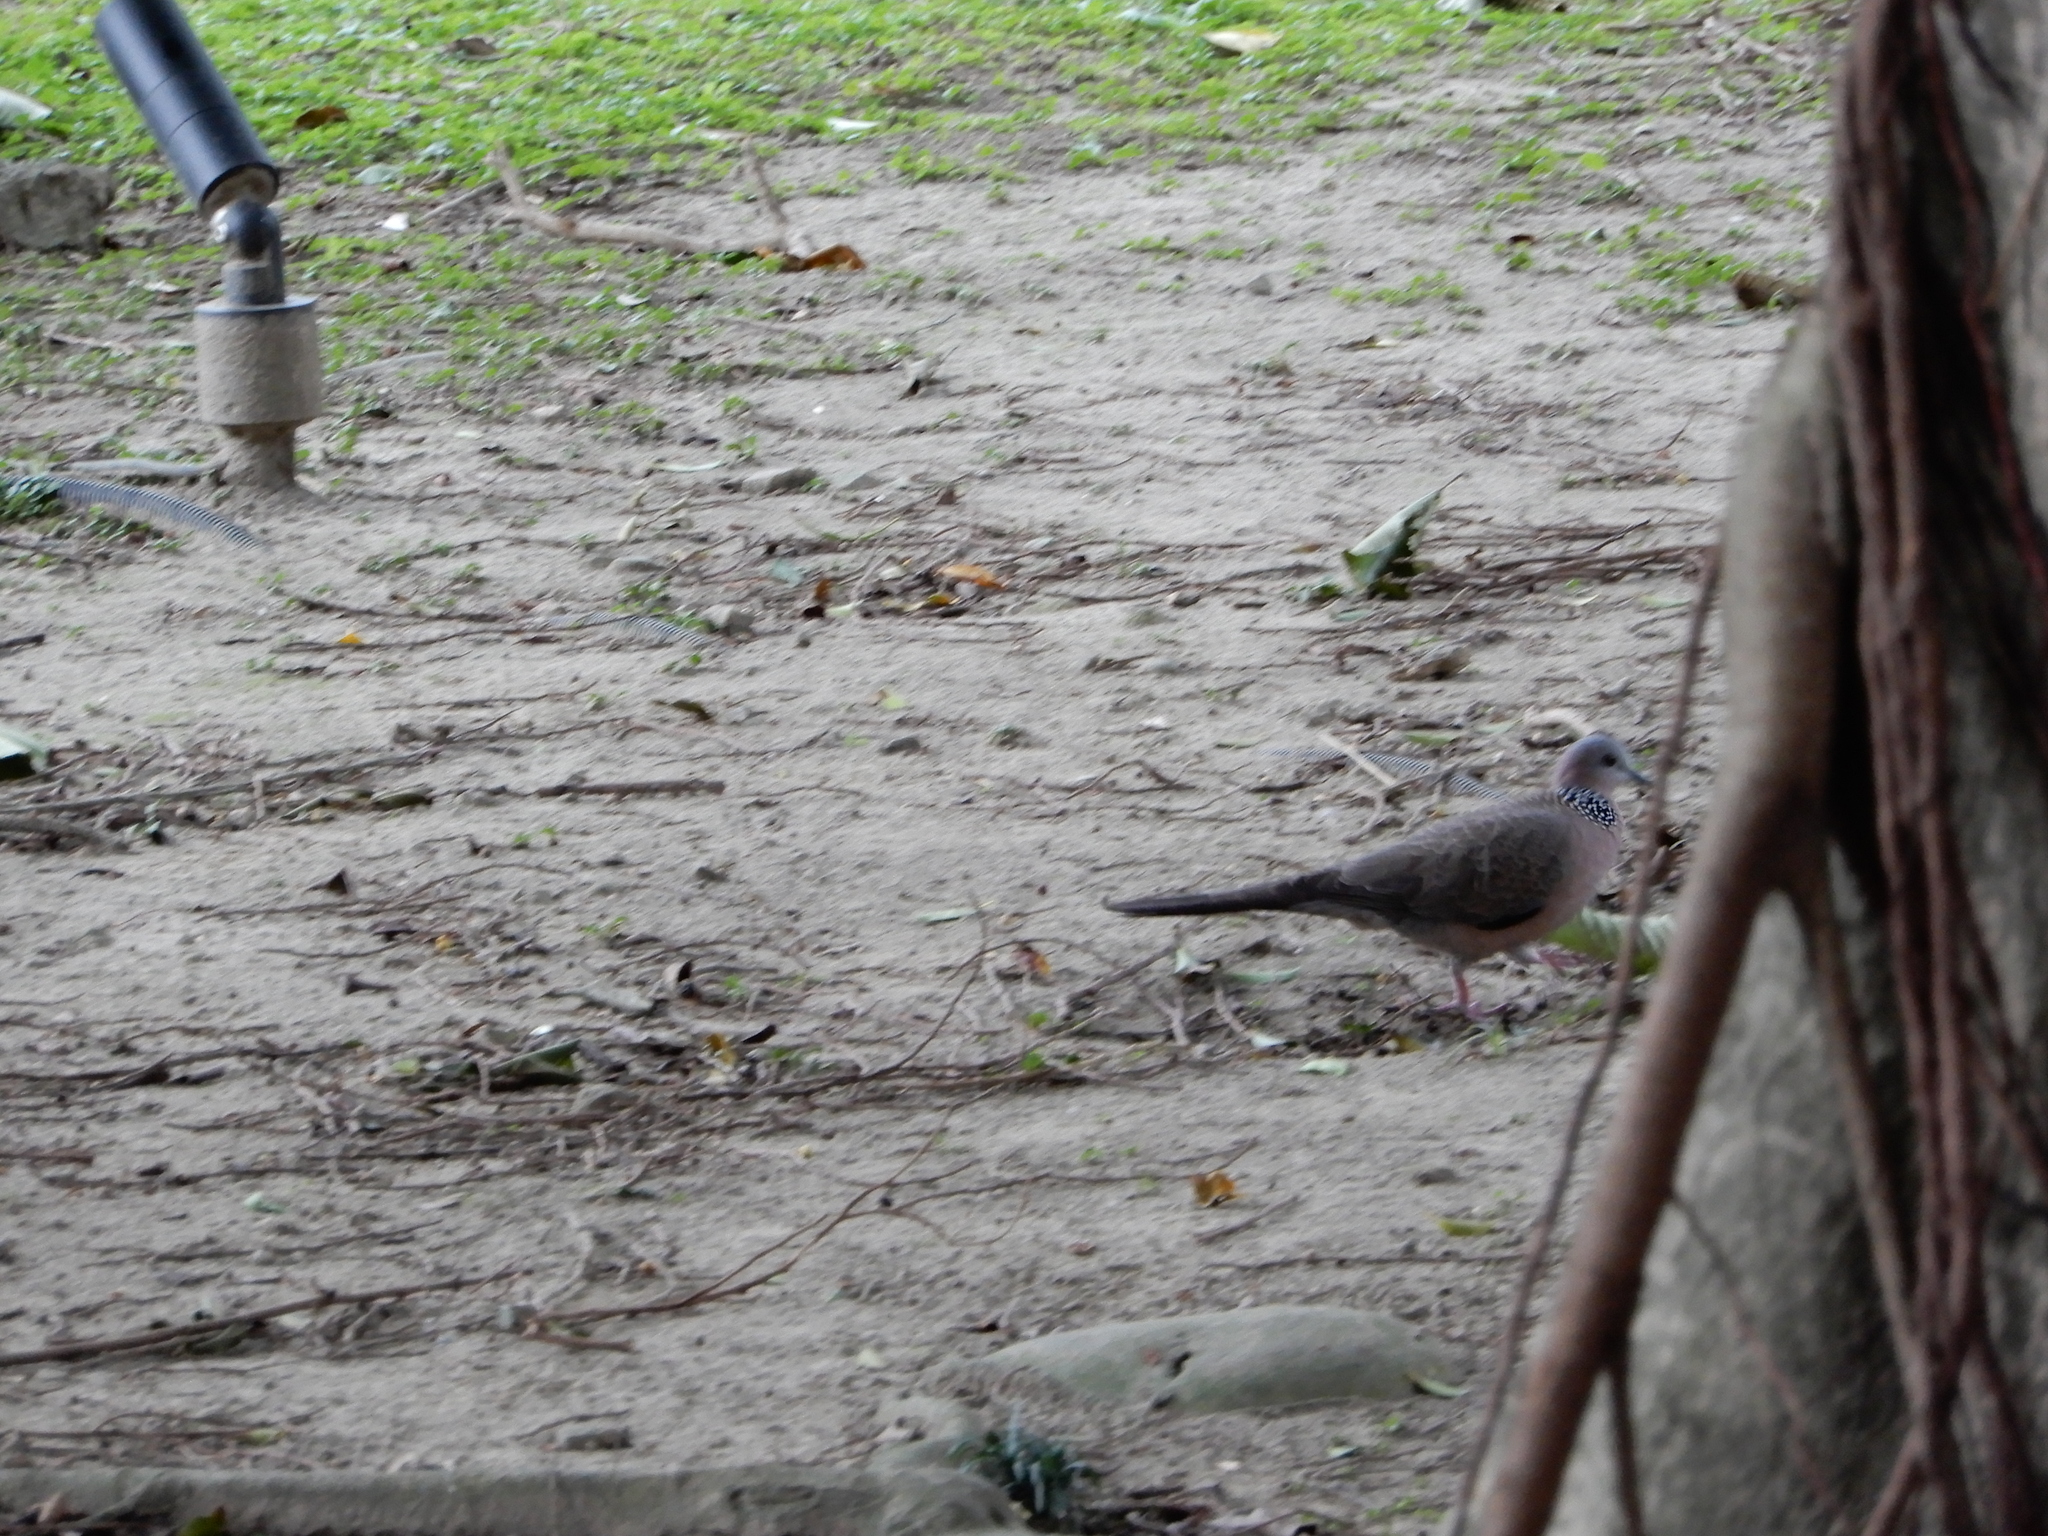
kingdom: Animalia
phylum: Chordata
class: Aves
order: Columbiformes
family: Columbidae
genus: Spilopelia
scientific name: Spilopelia chinensis
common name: Spotted dove
